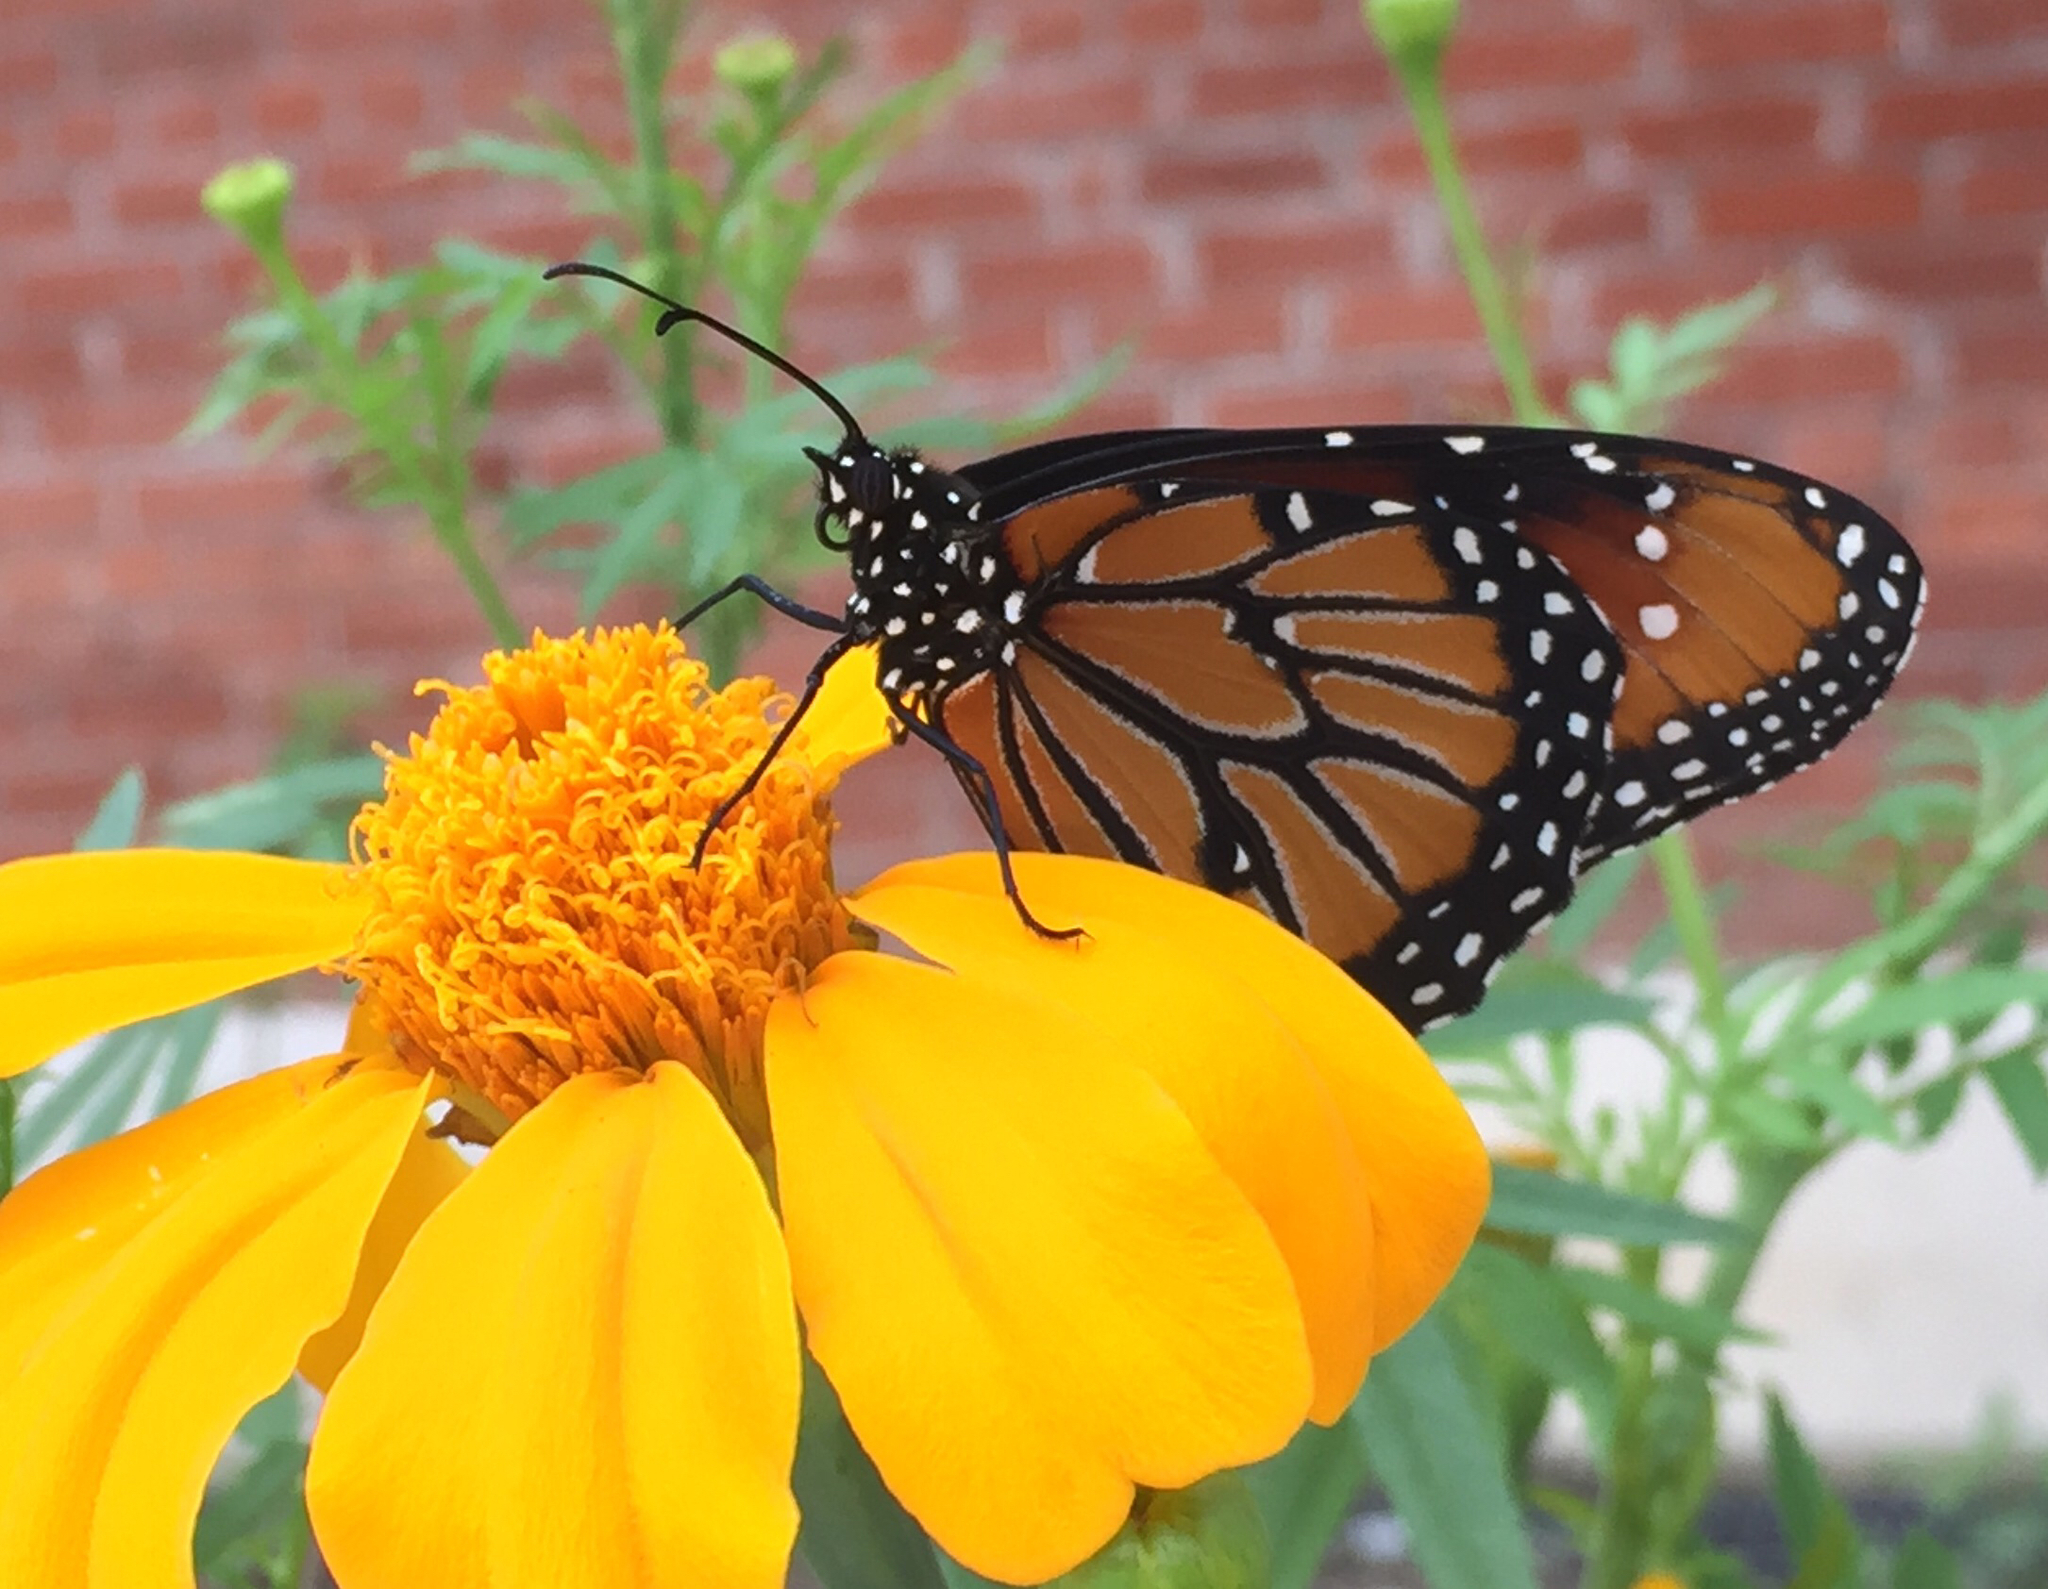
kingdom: Animalia
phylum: Arthropoda
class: Insecta
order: Lepidoptera
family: Nymphalidae
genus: Danaus
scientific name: Danaus gilippus
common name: Queen
